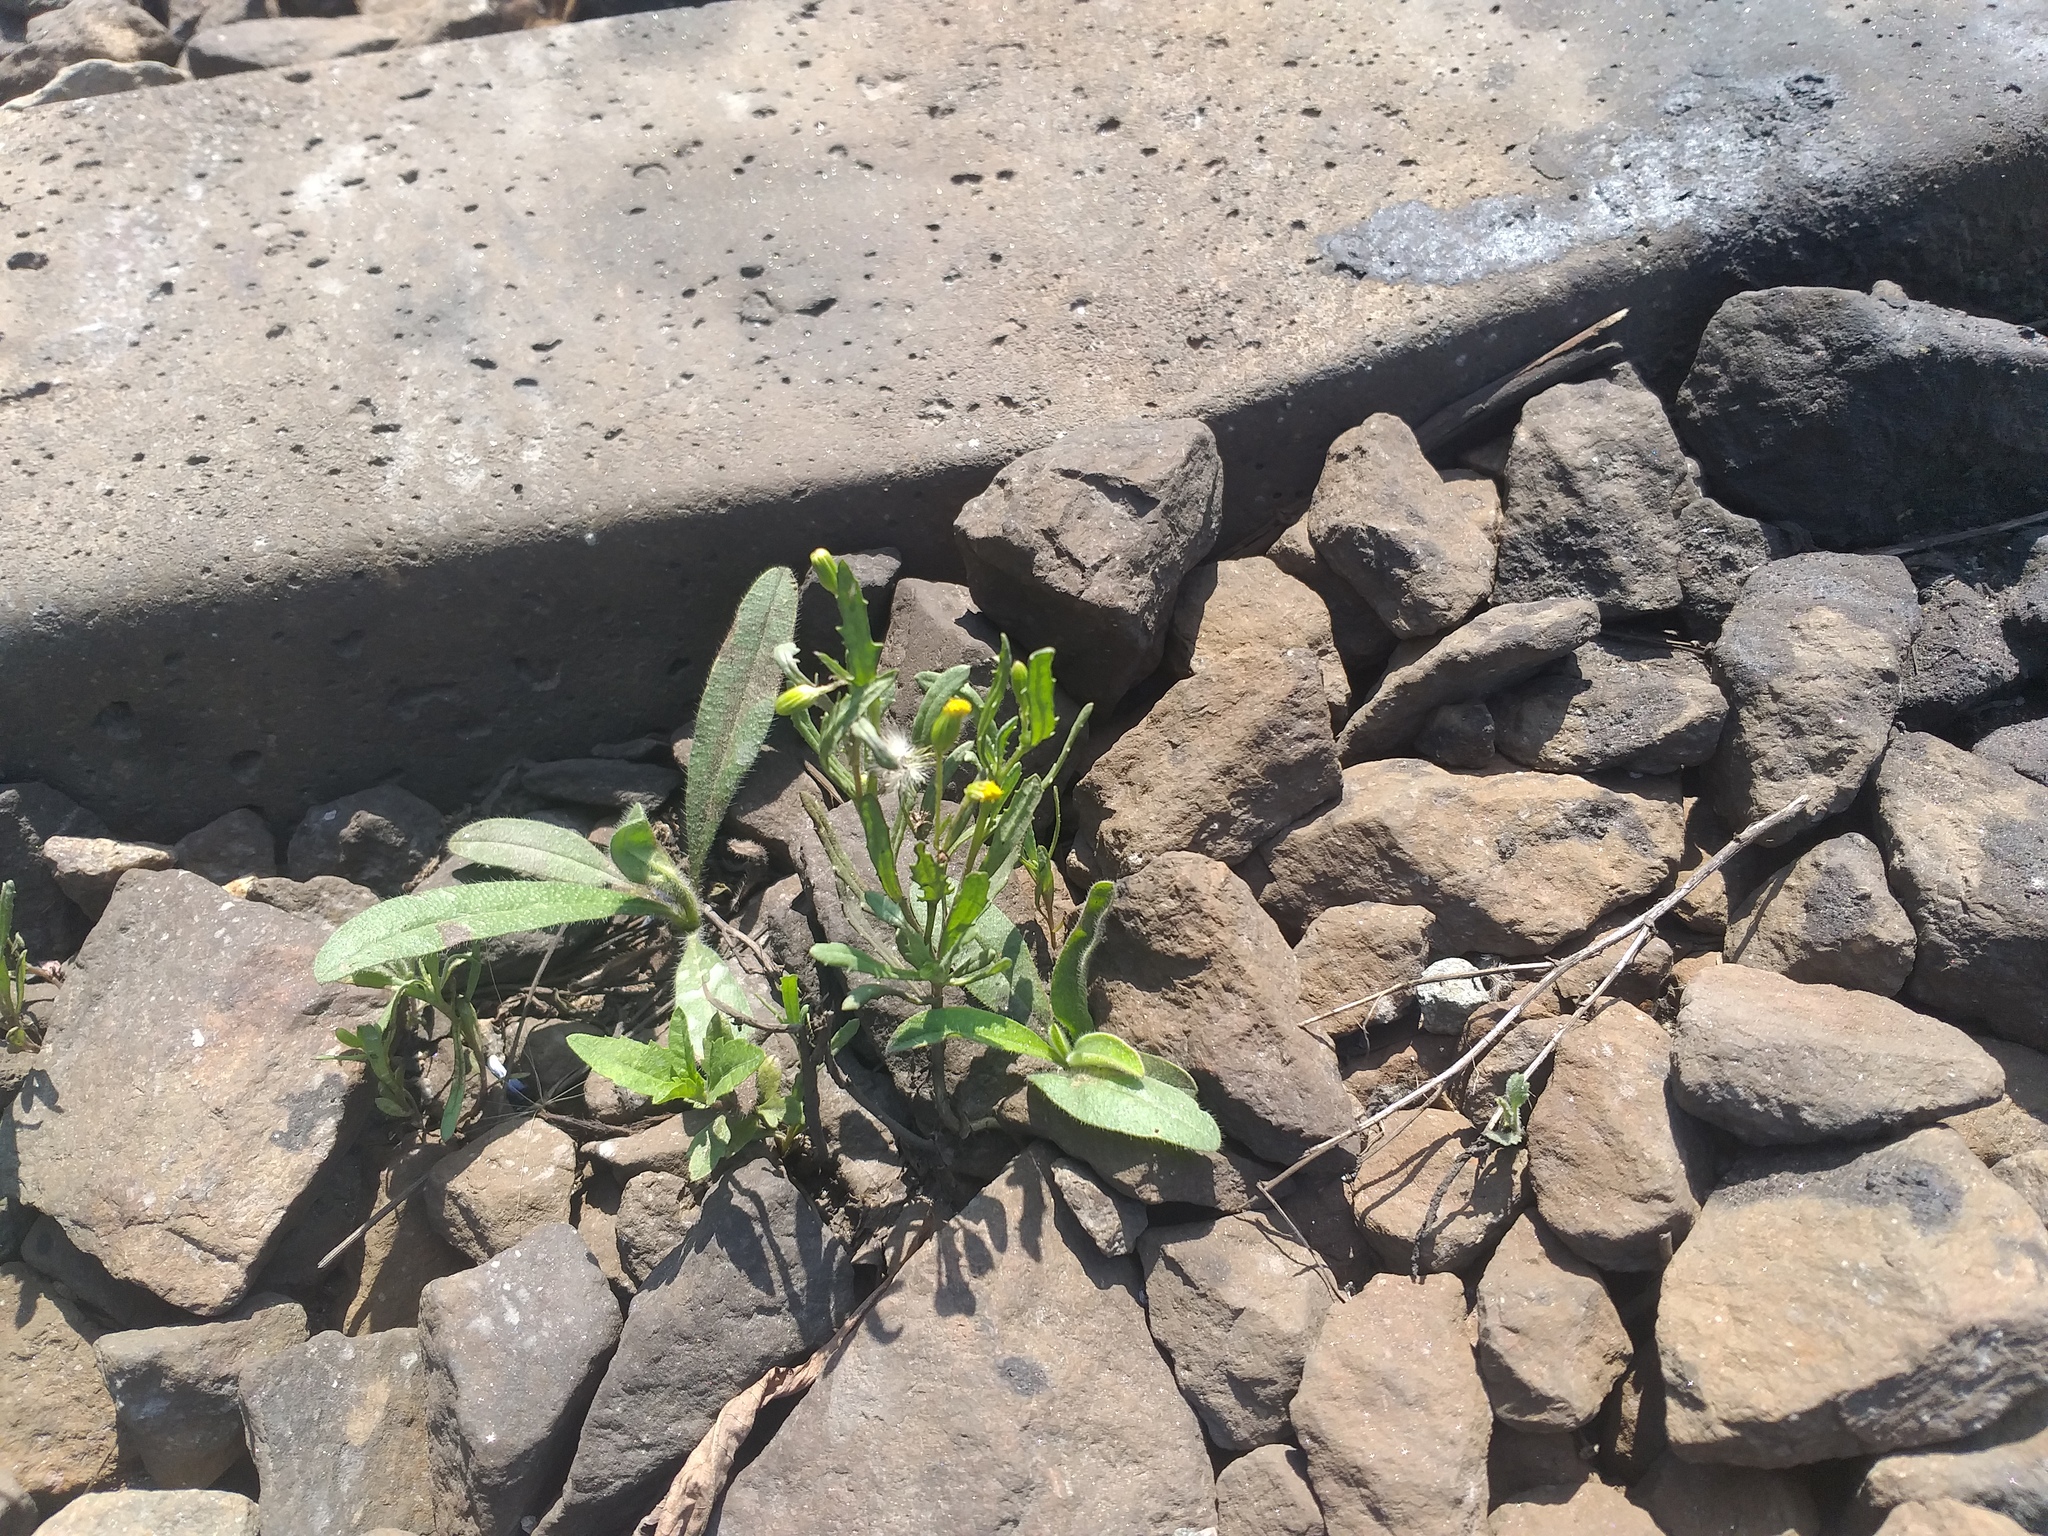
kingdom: Plantae
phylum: Tracheophyta
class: Magnoliopsida
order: Asterales
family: Asteraceae
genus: Senecio
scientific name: Senecio dubitabilis
